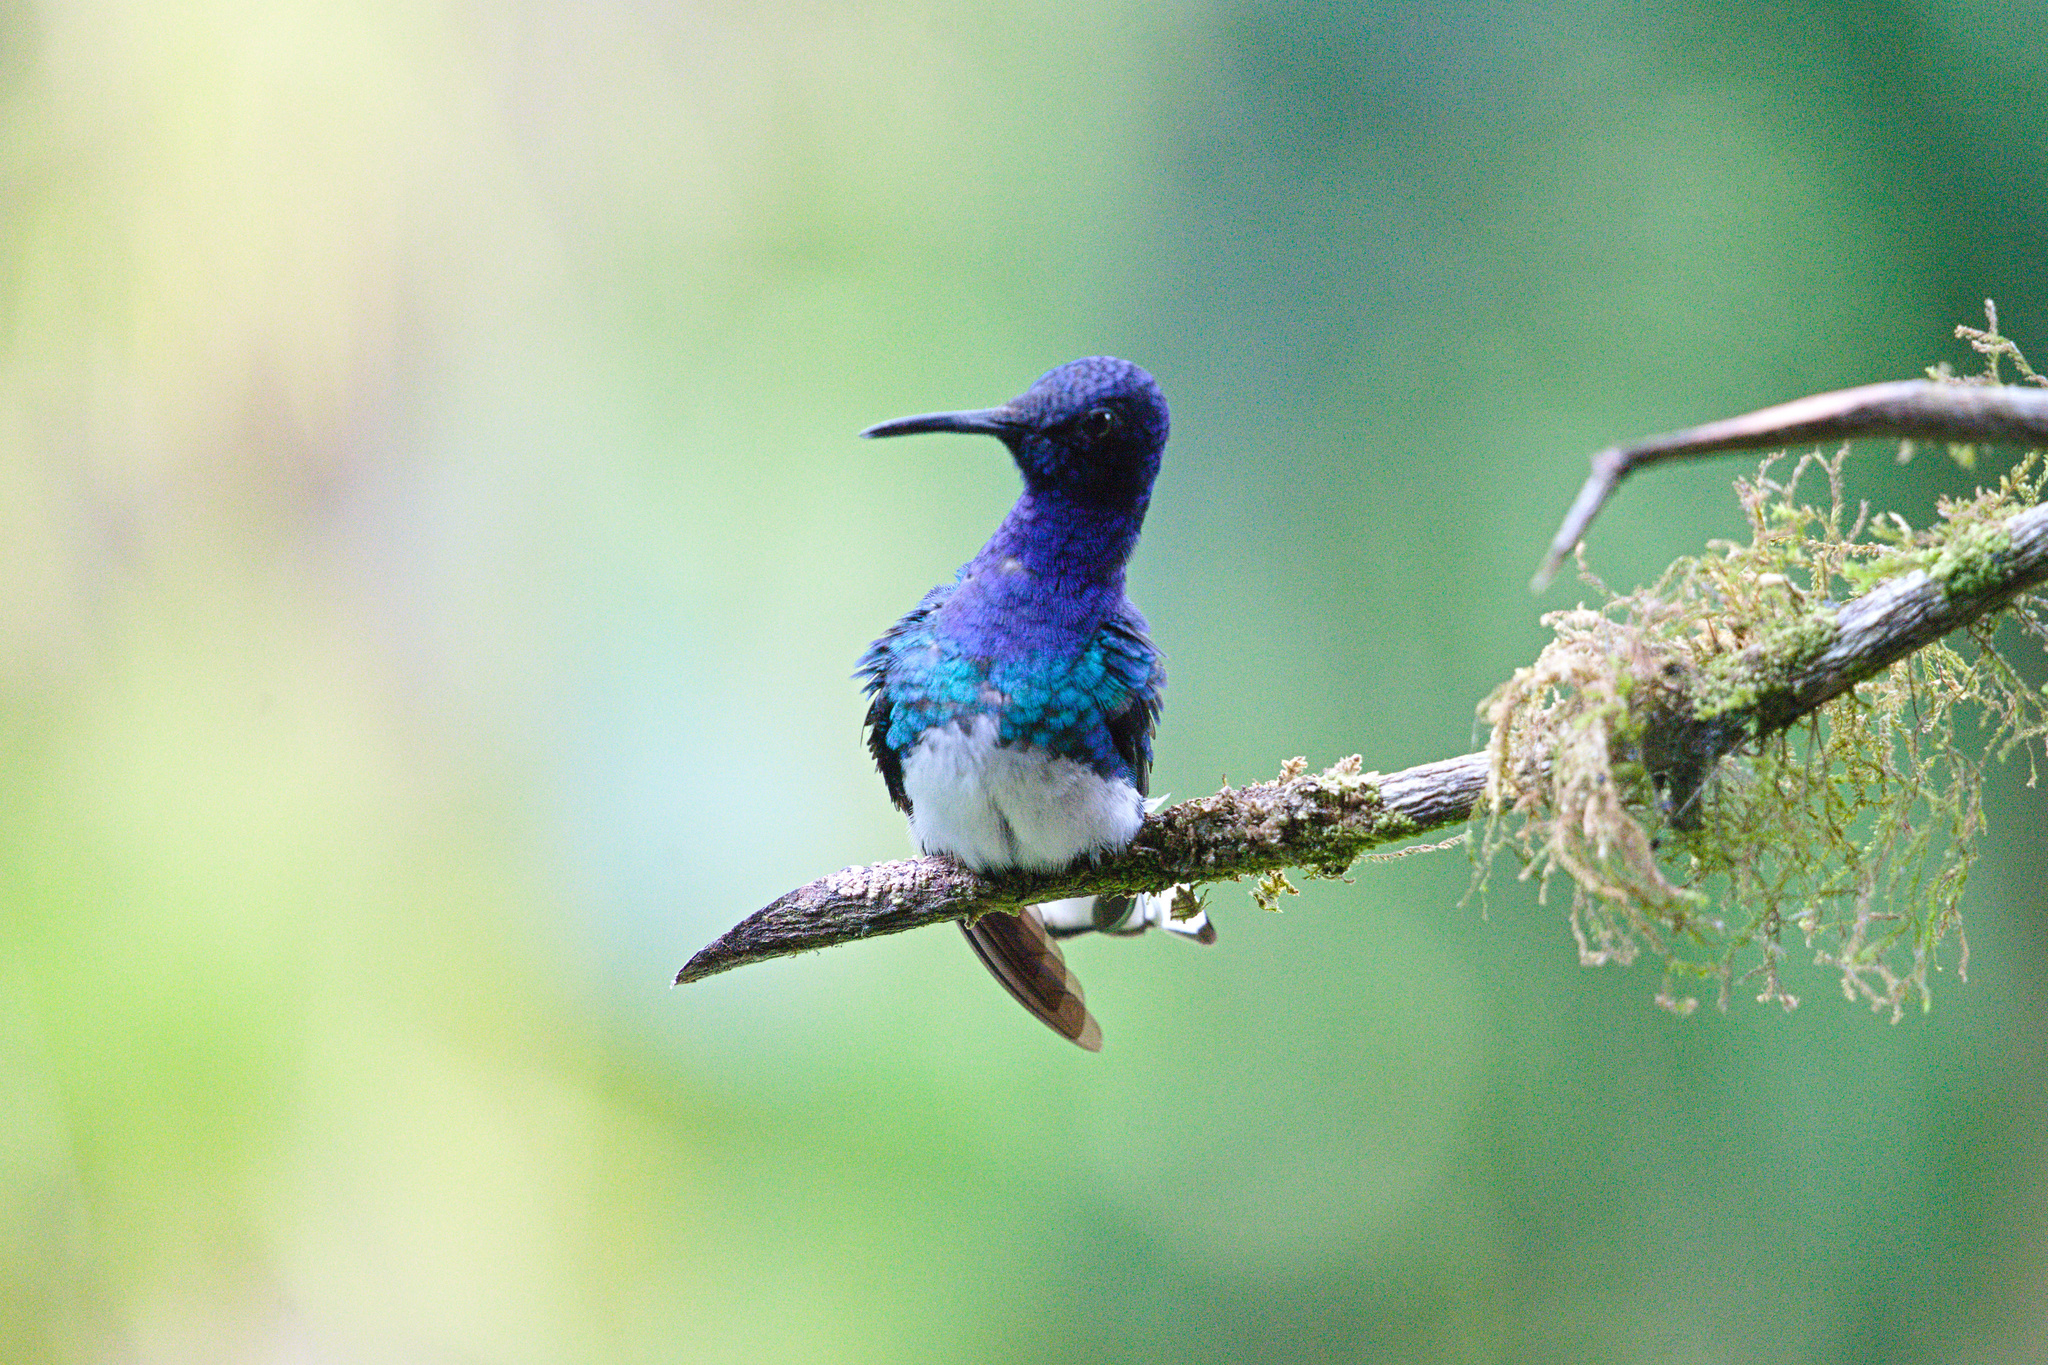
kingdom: Animalia
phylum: Chordata
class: Aves
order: Apodiformes
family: Trochilidae
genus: Florisuga
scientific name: Florisuga mellivora
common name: White-necked jacobin
